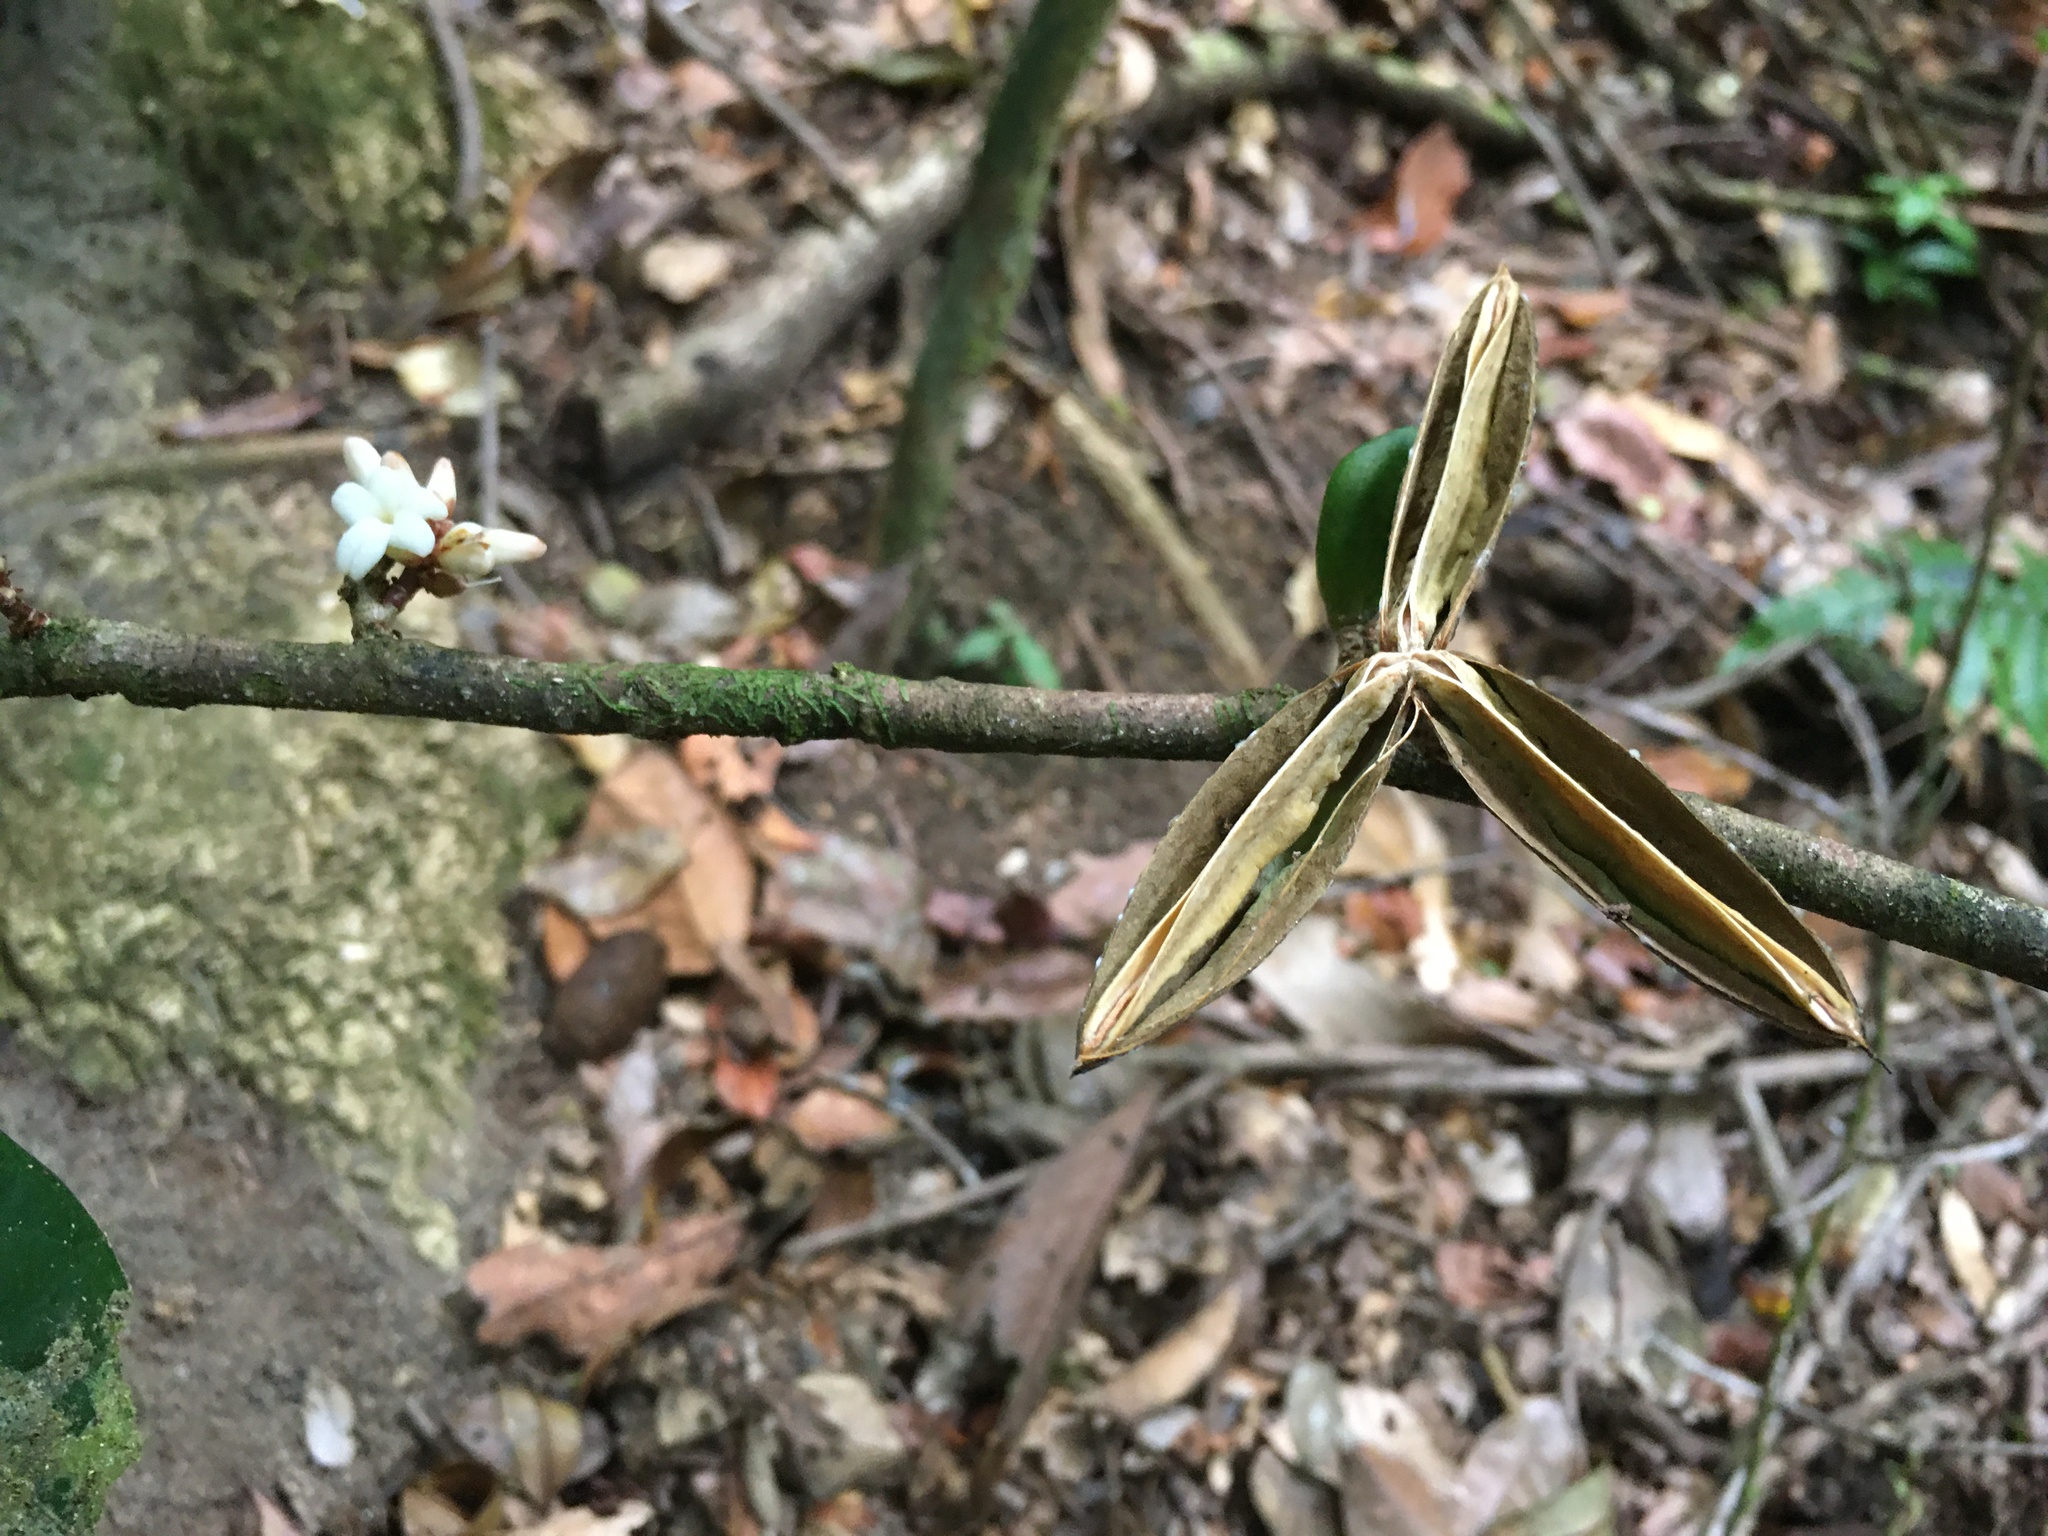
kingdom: Plantae
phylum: Tracheophyta
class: Magnoliopsida
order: Malpighiales
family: Violaceae
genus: Paypayrola
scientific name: Paypayrola blanchetiana
